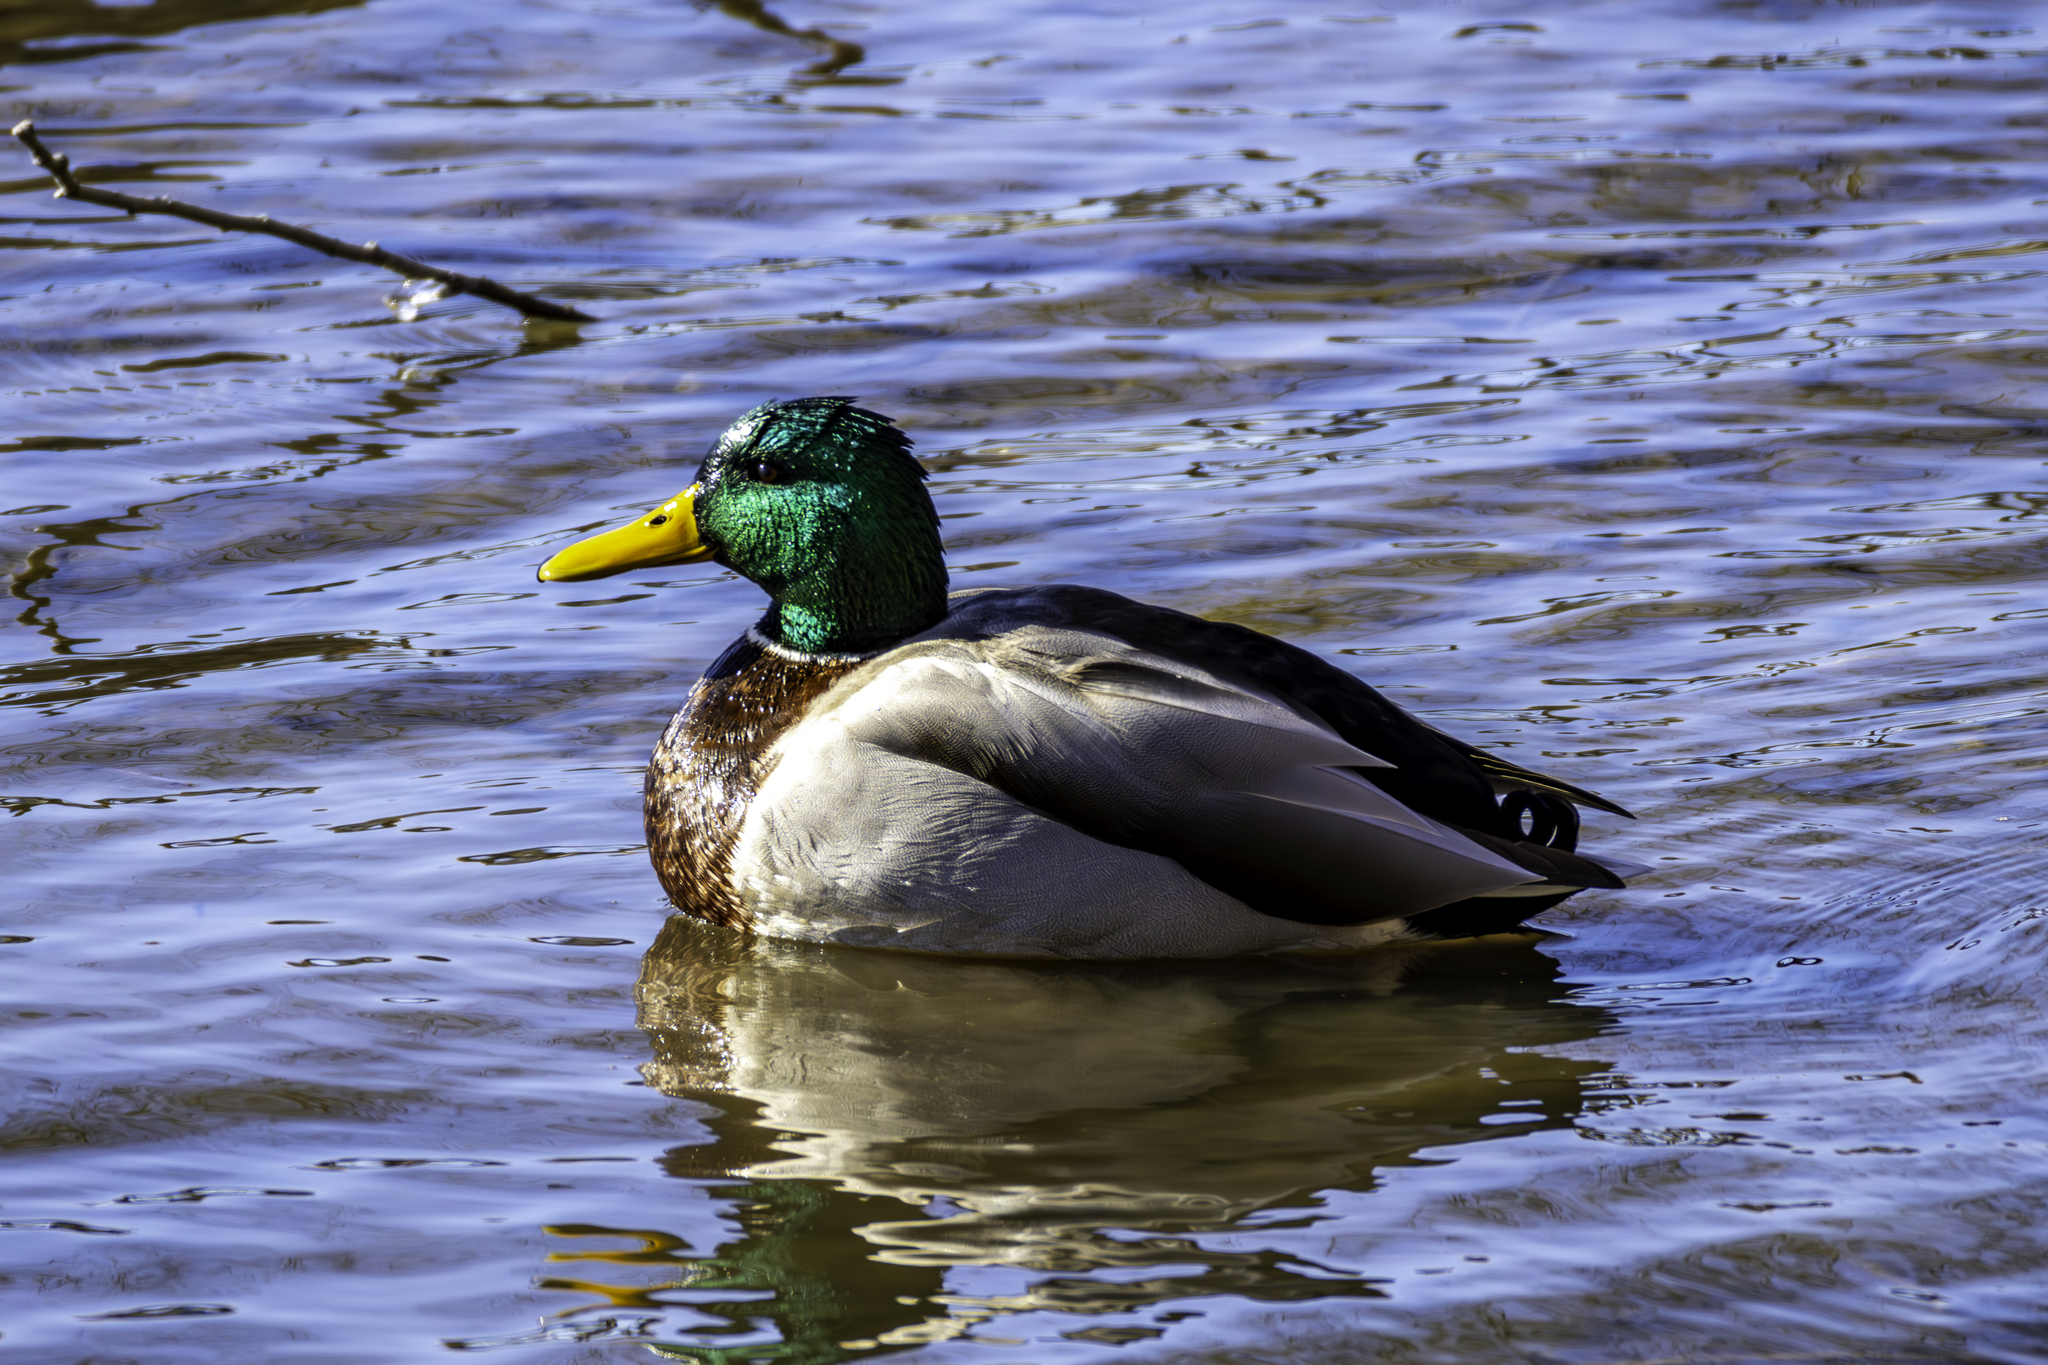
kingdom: Animalia
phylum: Chordata
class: Aves
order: Anseriformes
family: Anatidae
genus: Anas
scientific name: Anas platyrhynchos
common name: Mallard
